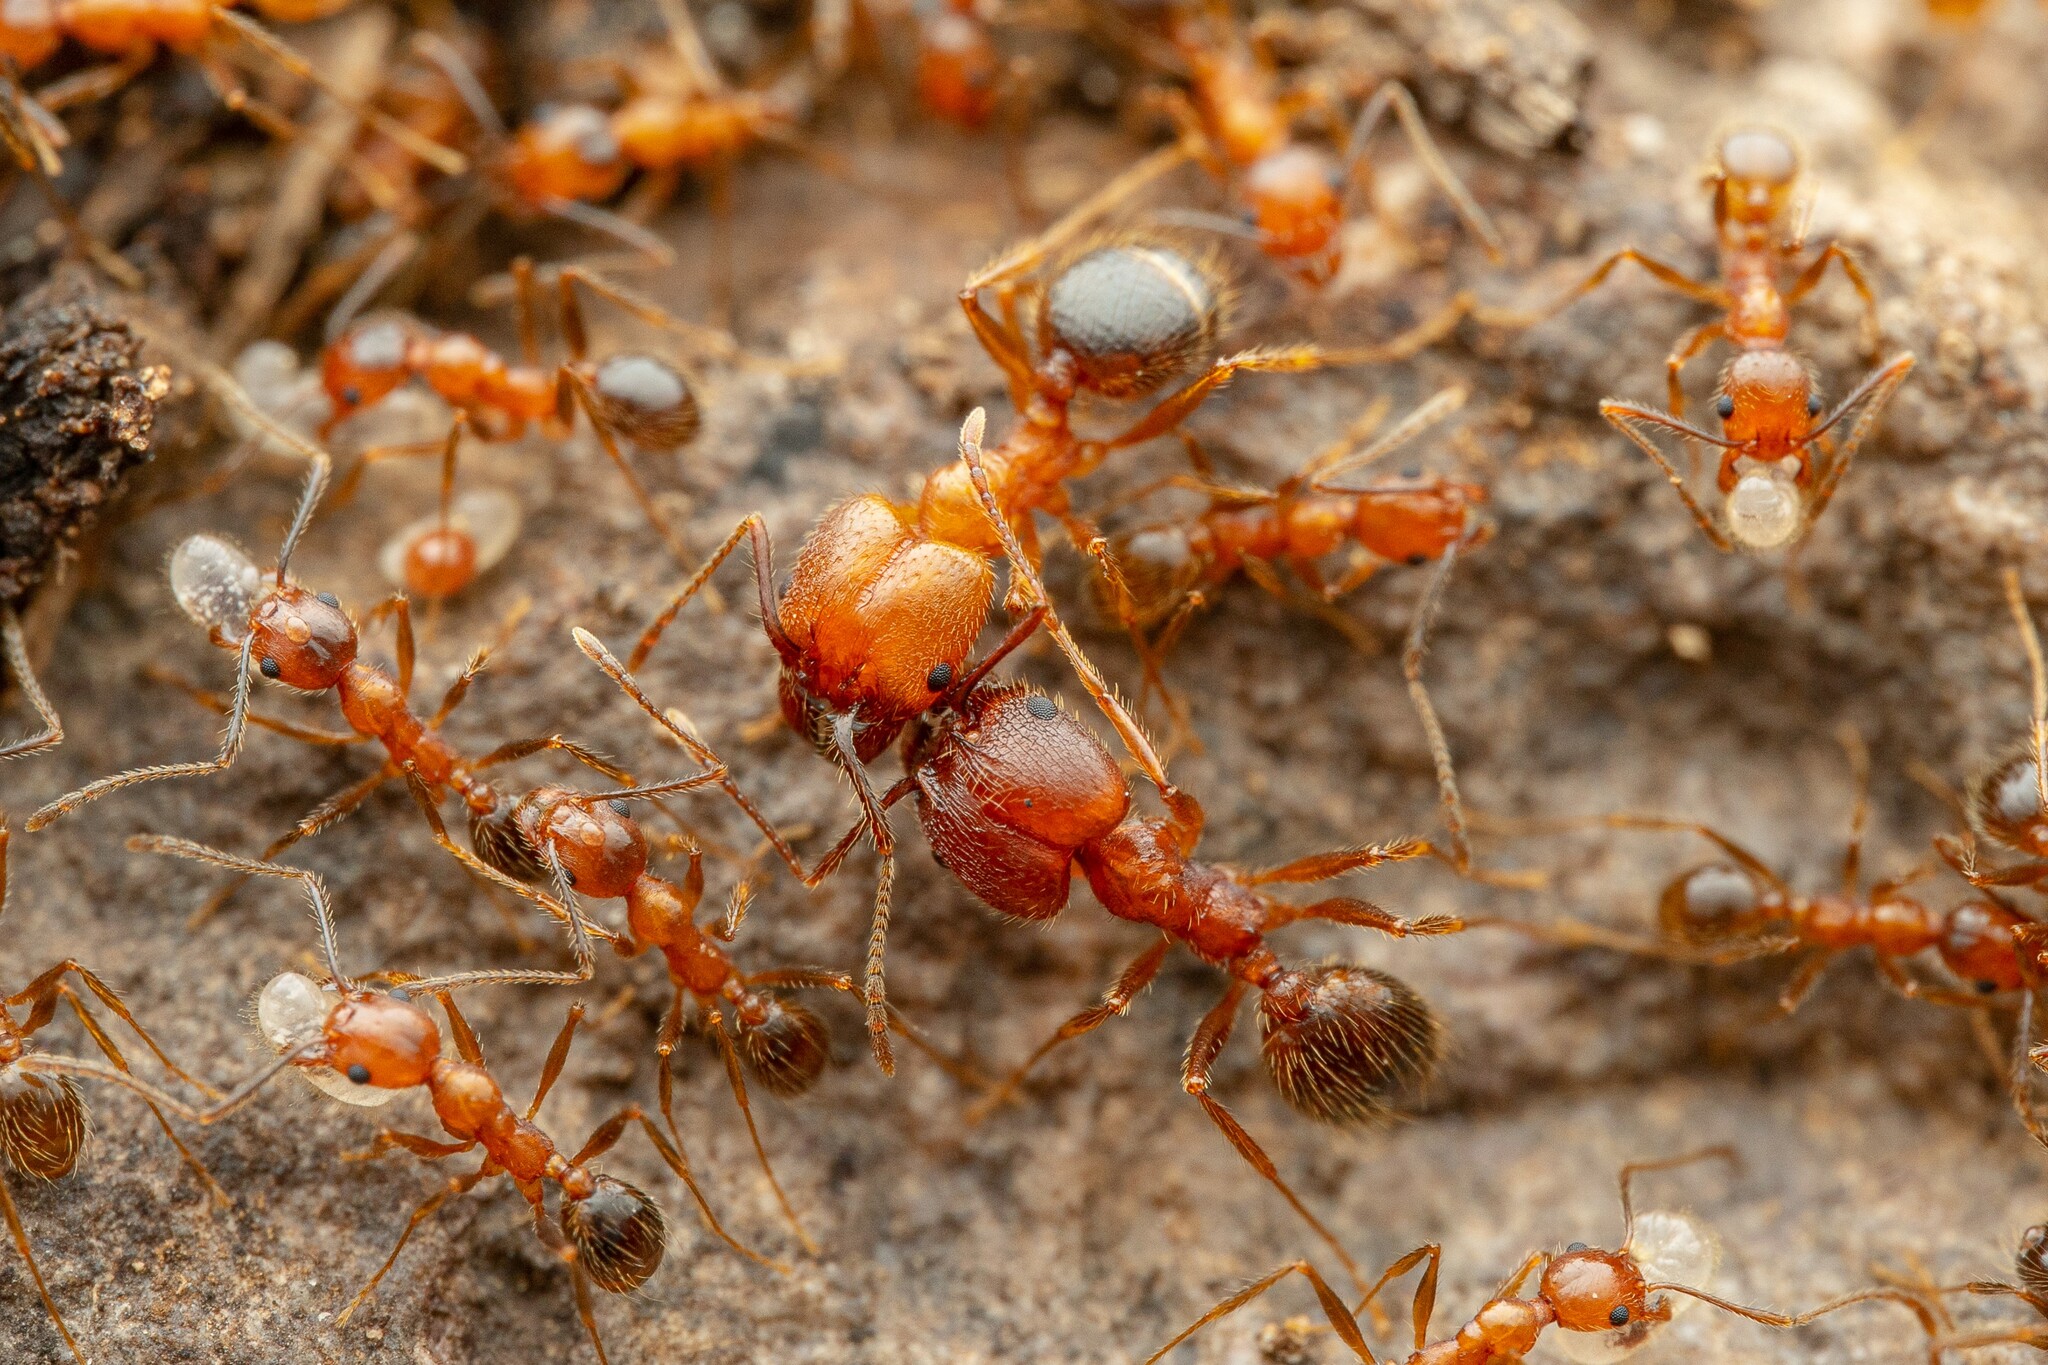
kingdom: Animalia
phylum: Arthropoda
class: Insecta
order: Hymenoptera
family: Formicidae
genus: Pheidole
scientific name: Pheidole hyatti
